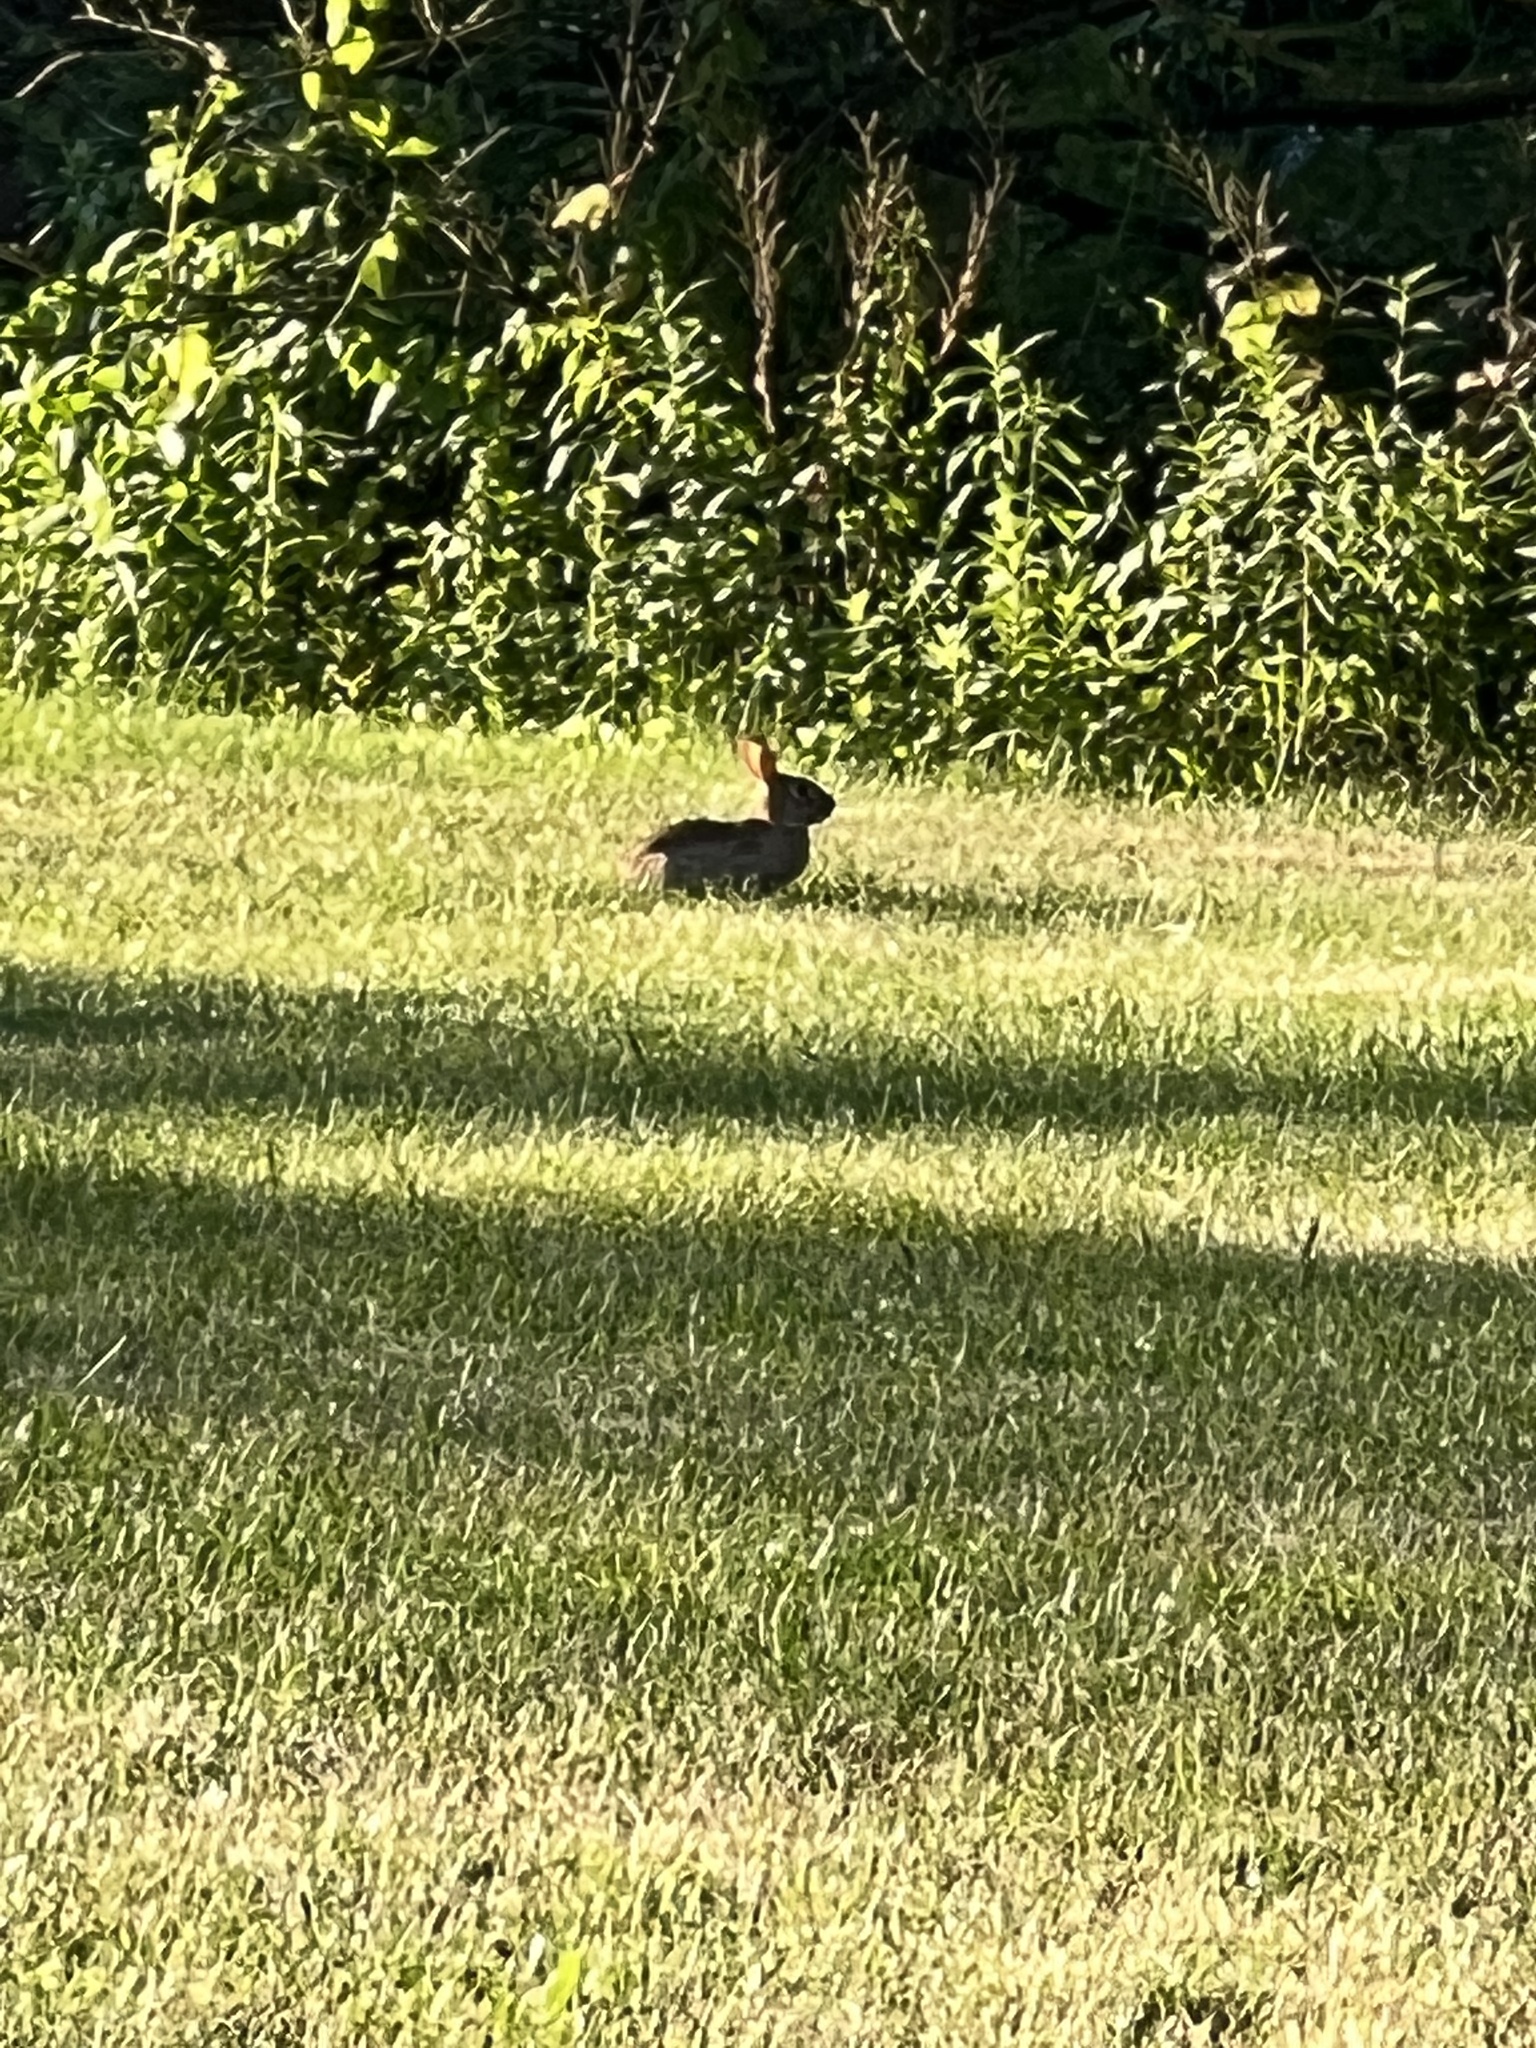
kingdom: Animalia
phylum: Chordata
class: Mammalia
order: Lagomorpha
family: Leporidae
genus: Sylvilagus
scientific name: Sylvilagus floridanus
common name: Eastern cottontail
